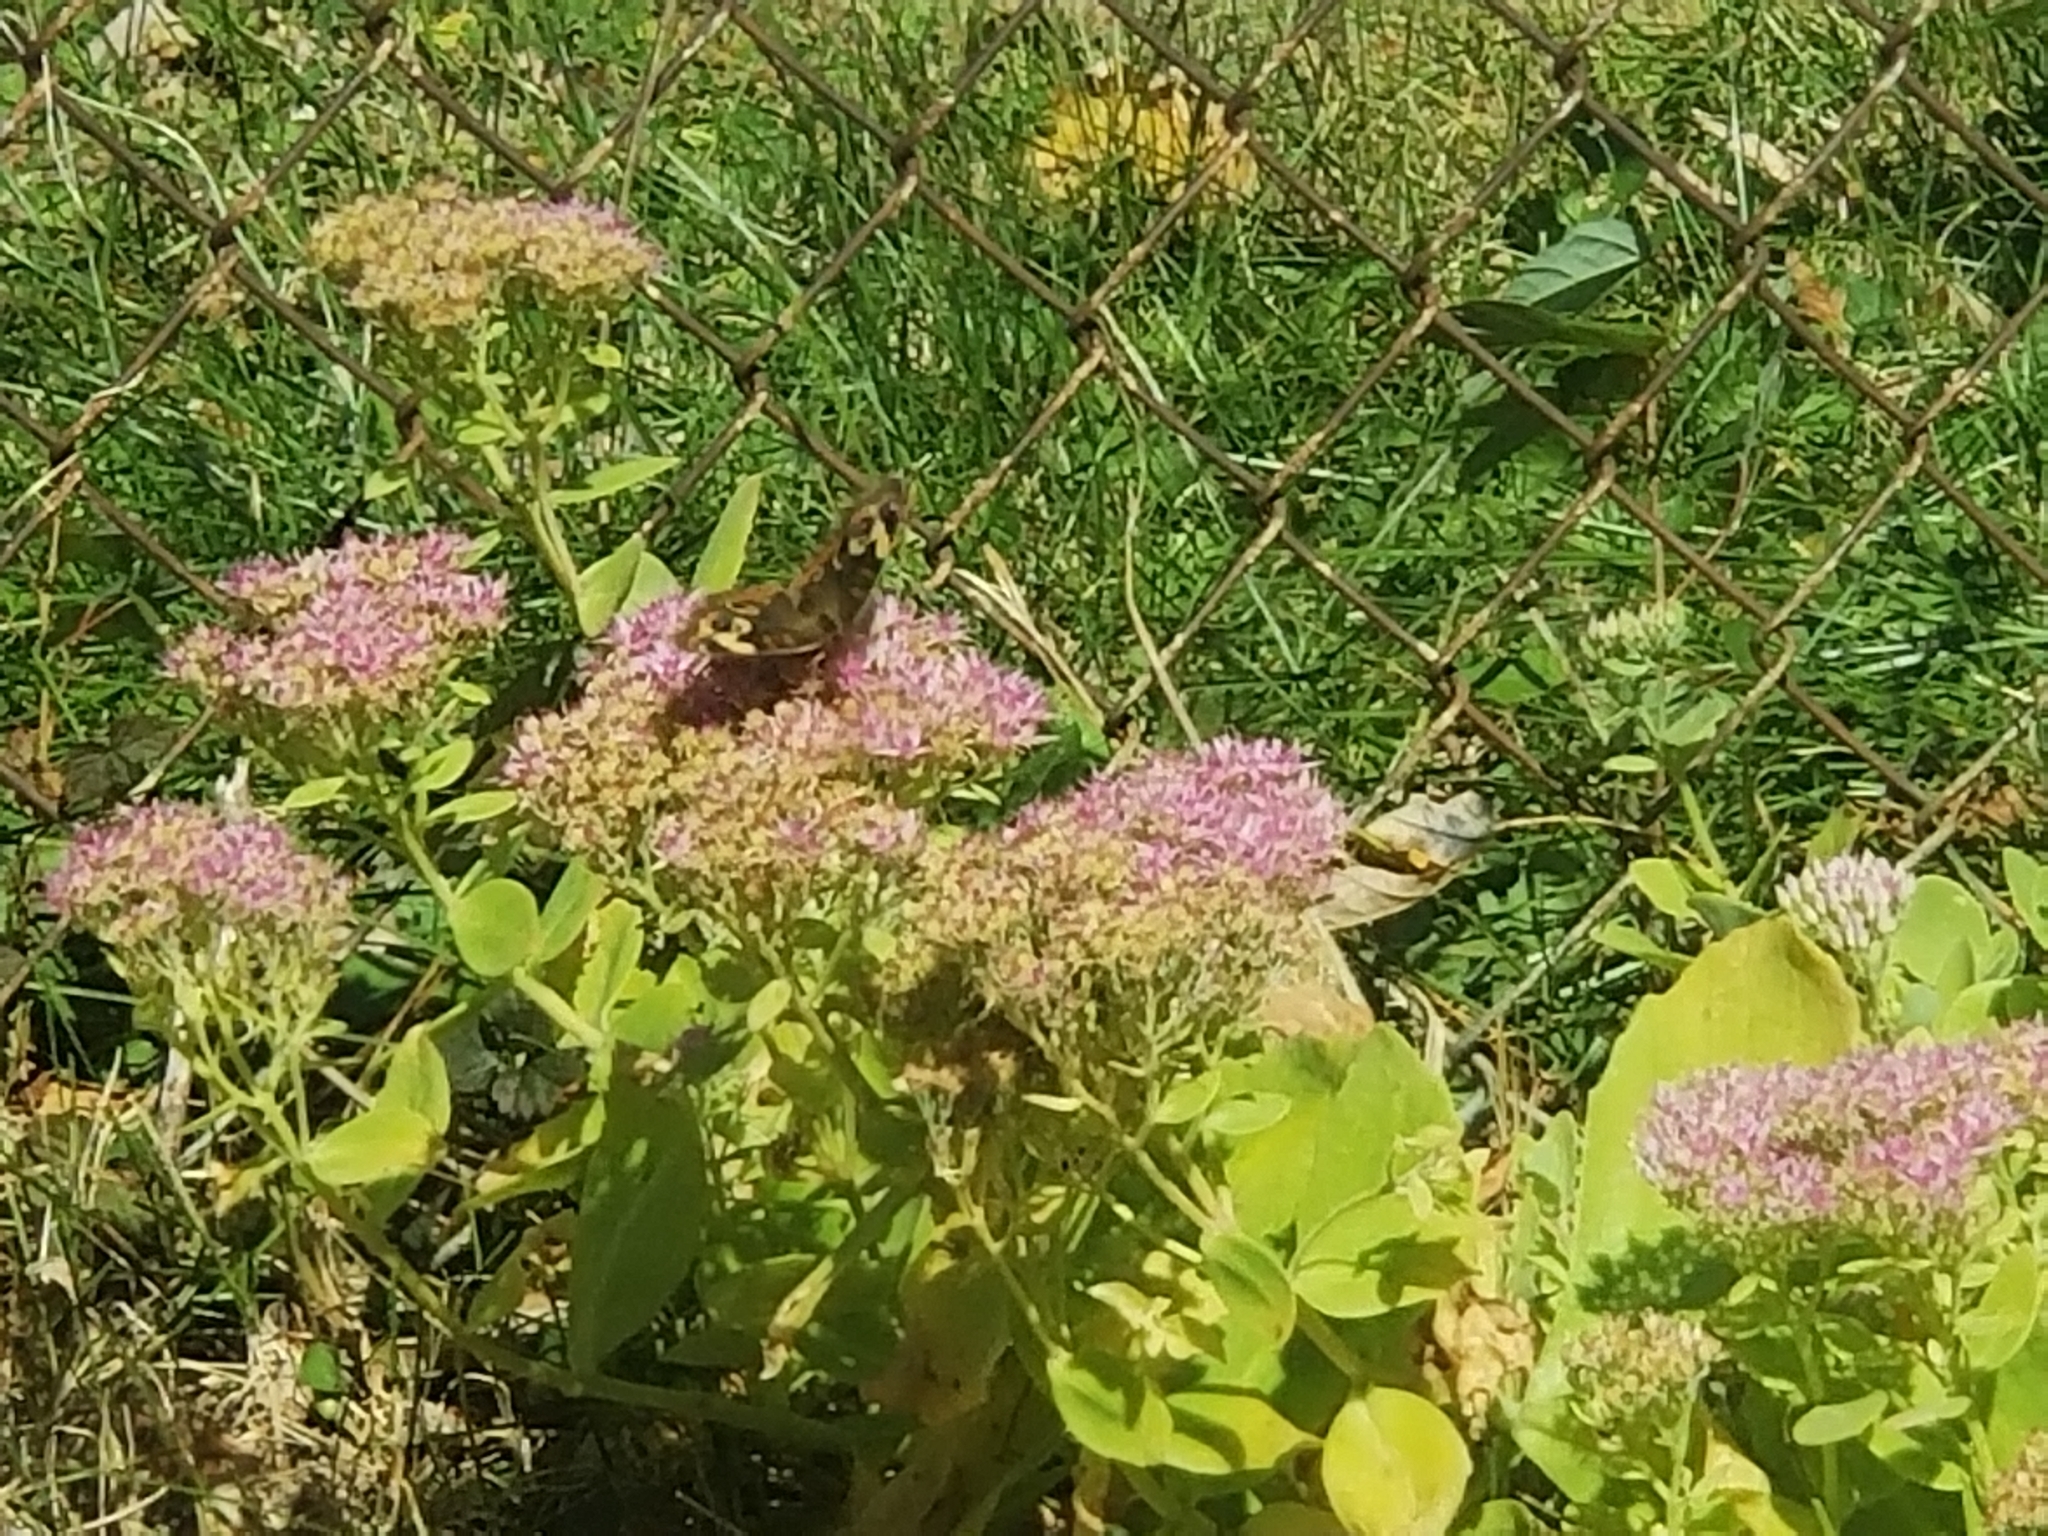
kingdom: Animalia
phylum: Arthropoda
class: Insecta
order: Lepidoptera
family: Nymphalidae
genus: Junonia
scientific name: Junonia coenia
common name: Common buckeye
